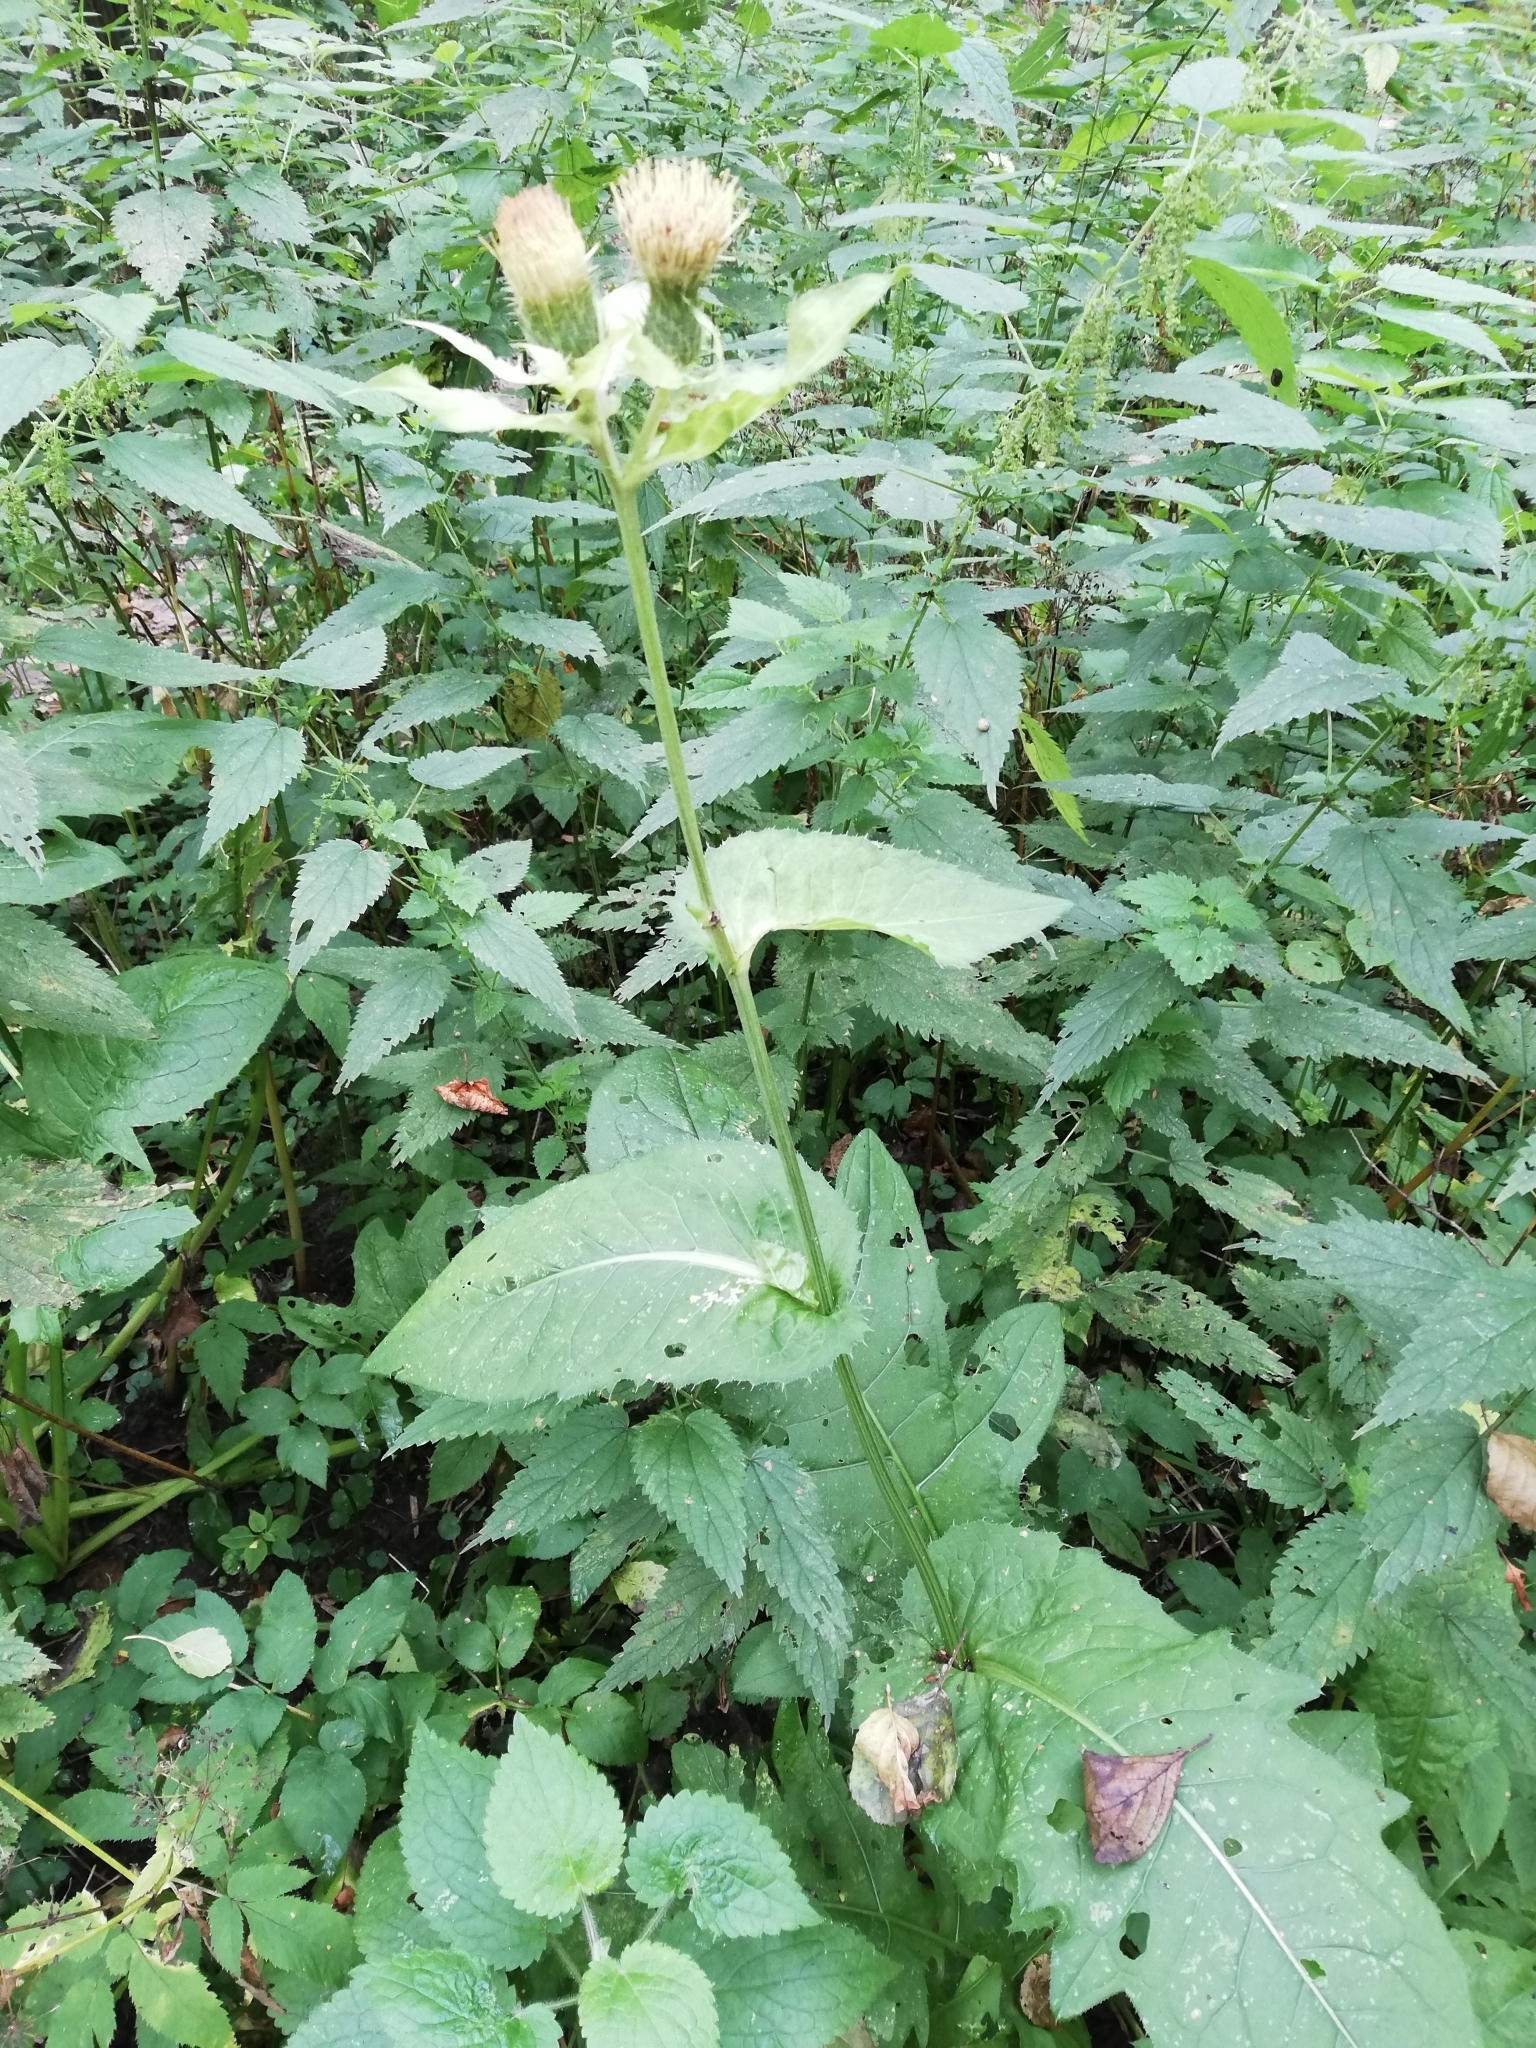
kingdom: Plantae
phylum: Tracheophyta
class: Magnoliopsida
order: Asterales
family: Asteraceae
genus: Cirsium
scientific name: Cirsium oleraceum
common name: Cabbage thistle
